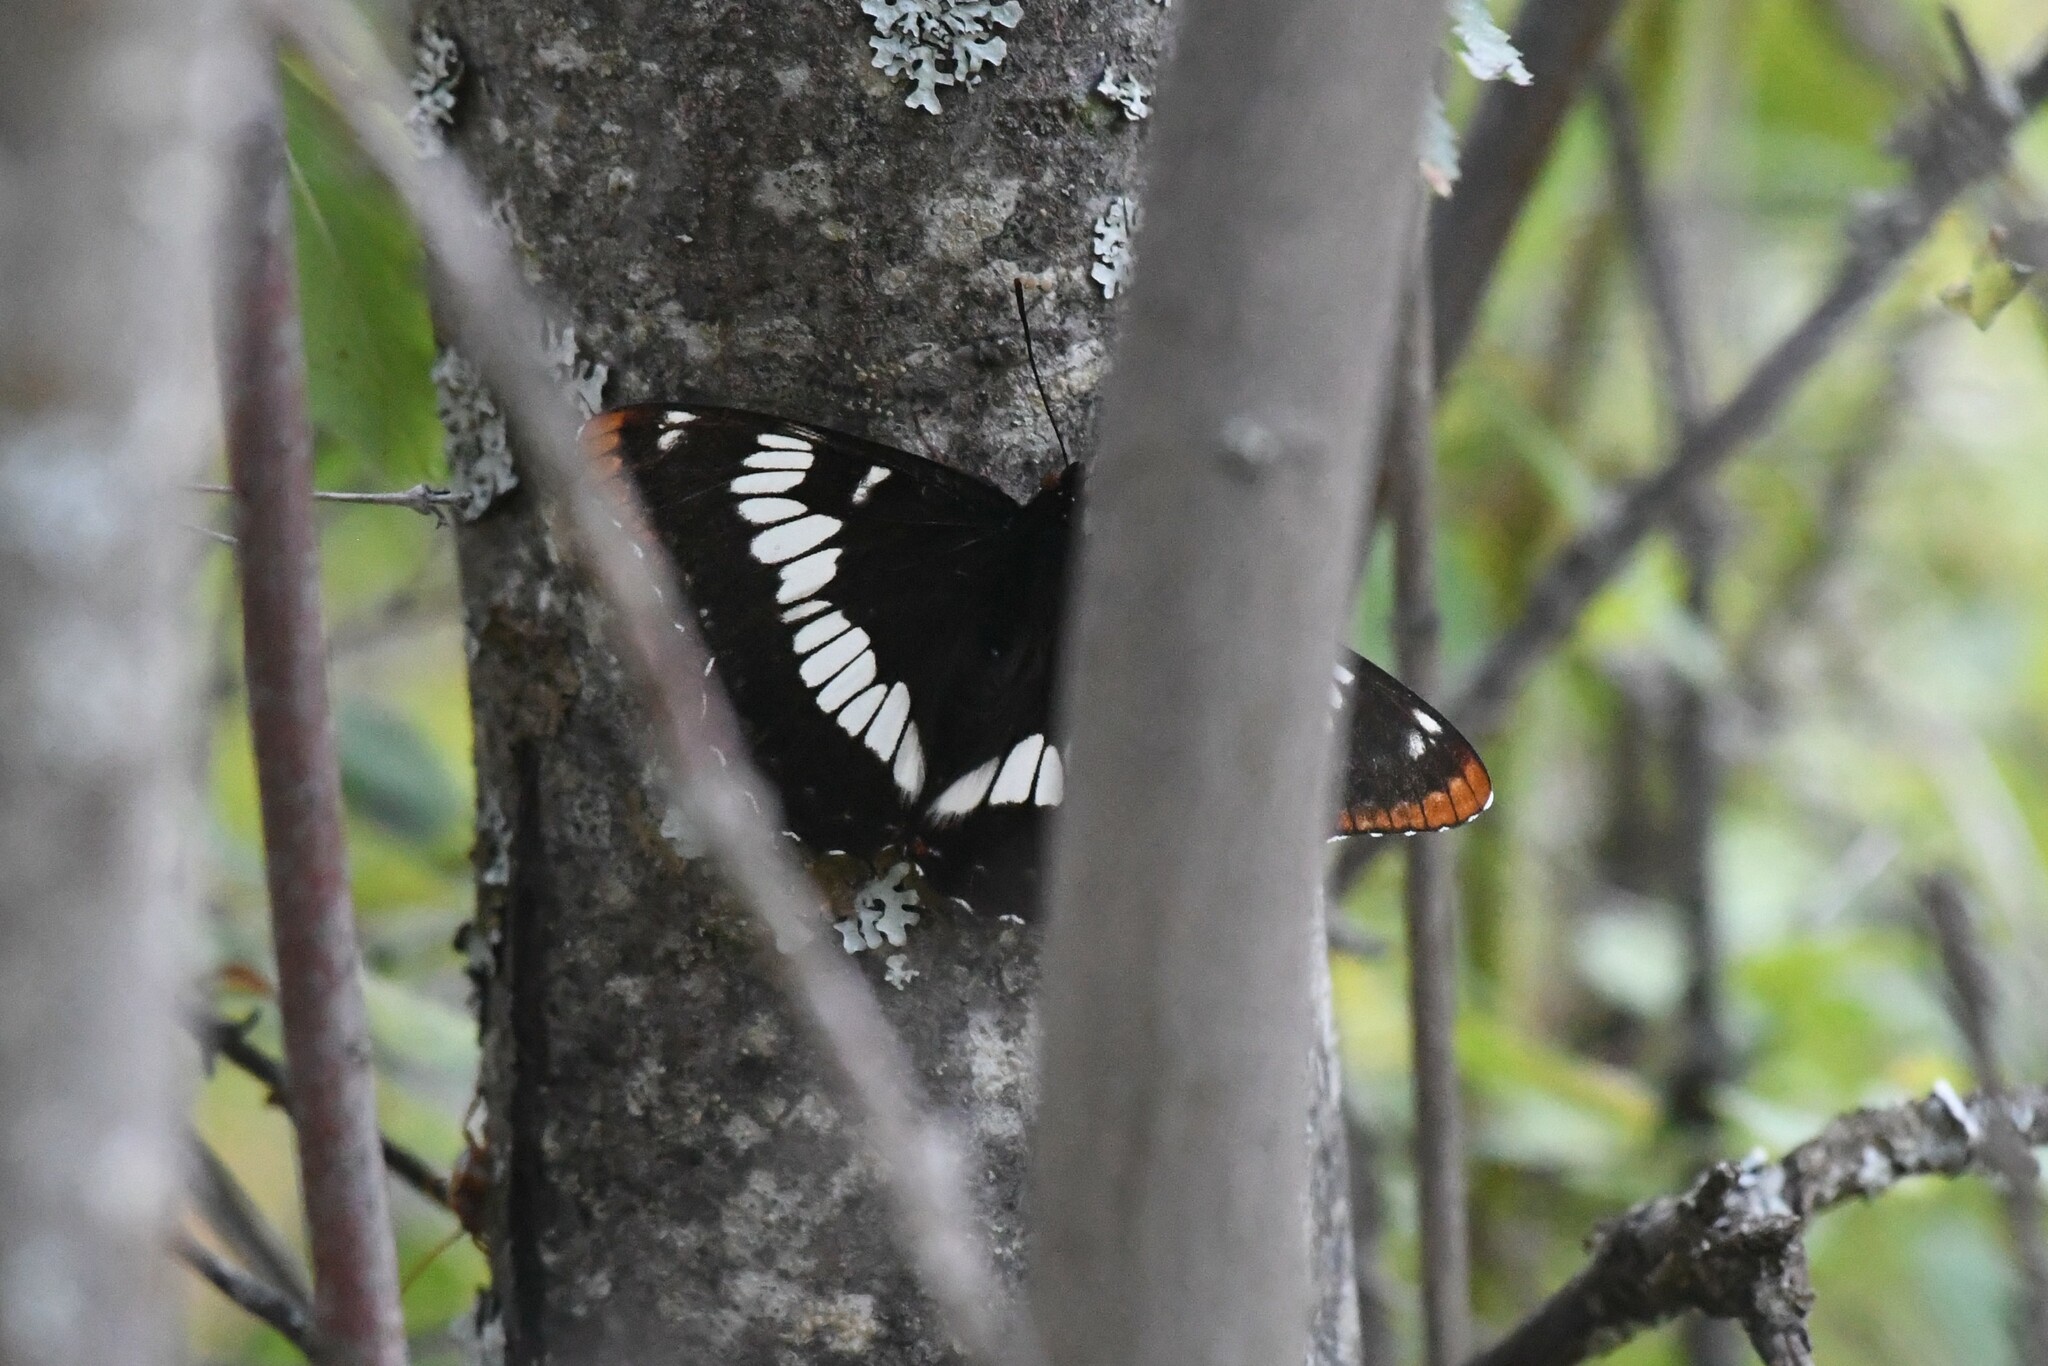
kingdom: Animalia
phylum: Arthropoda
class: Insecta
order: Lepidoptera
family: Nymphalidae
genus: Limenitis
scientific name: Limenitis lorquini
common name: Lorquin's admiral
